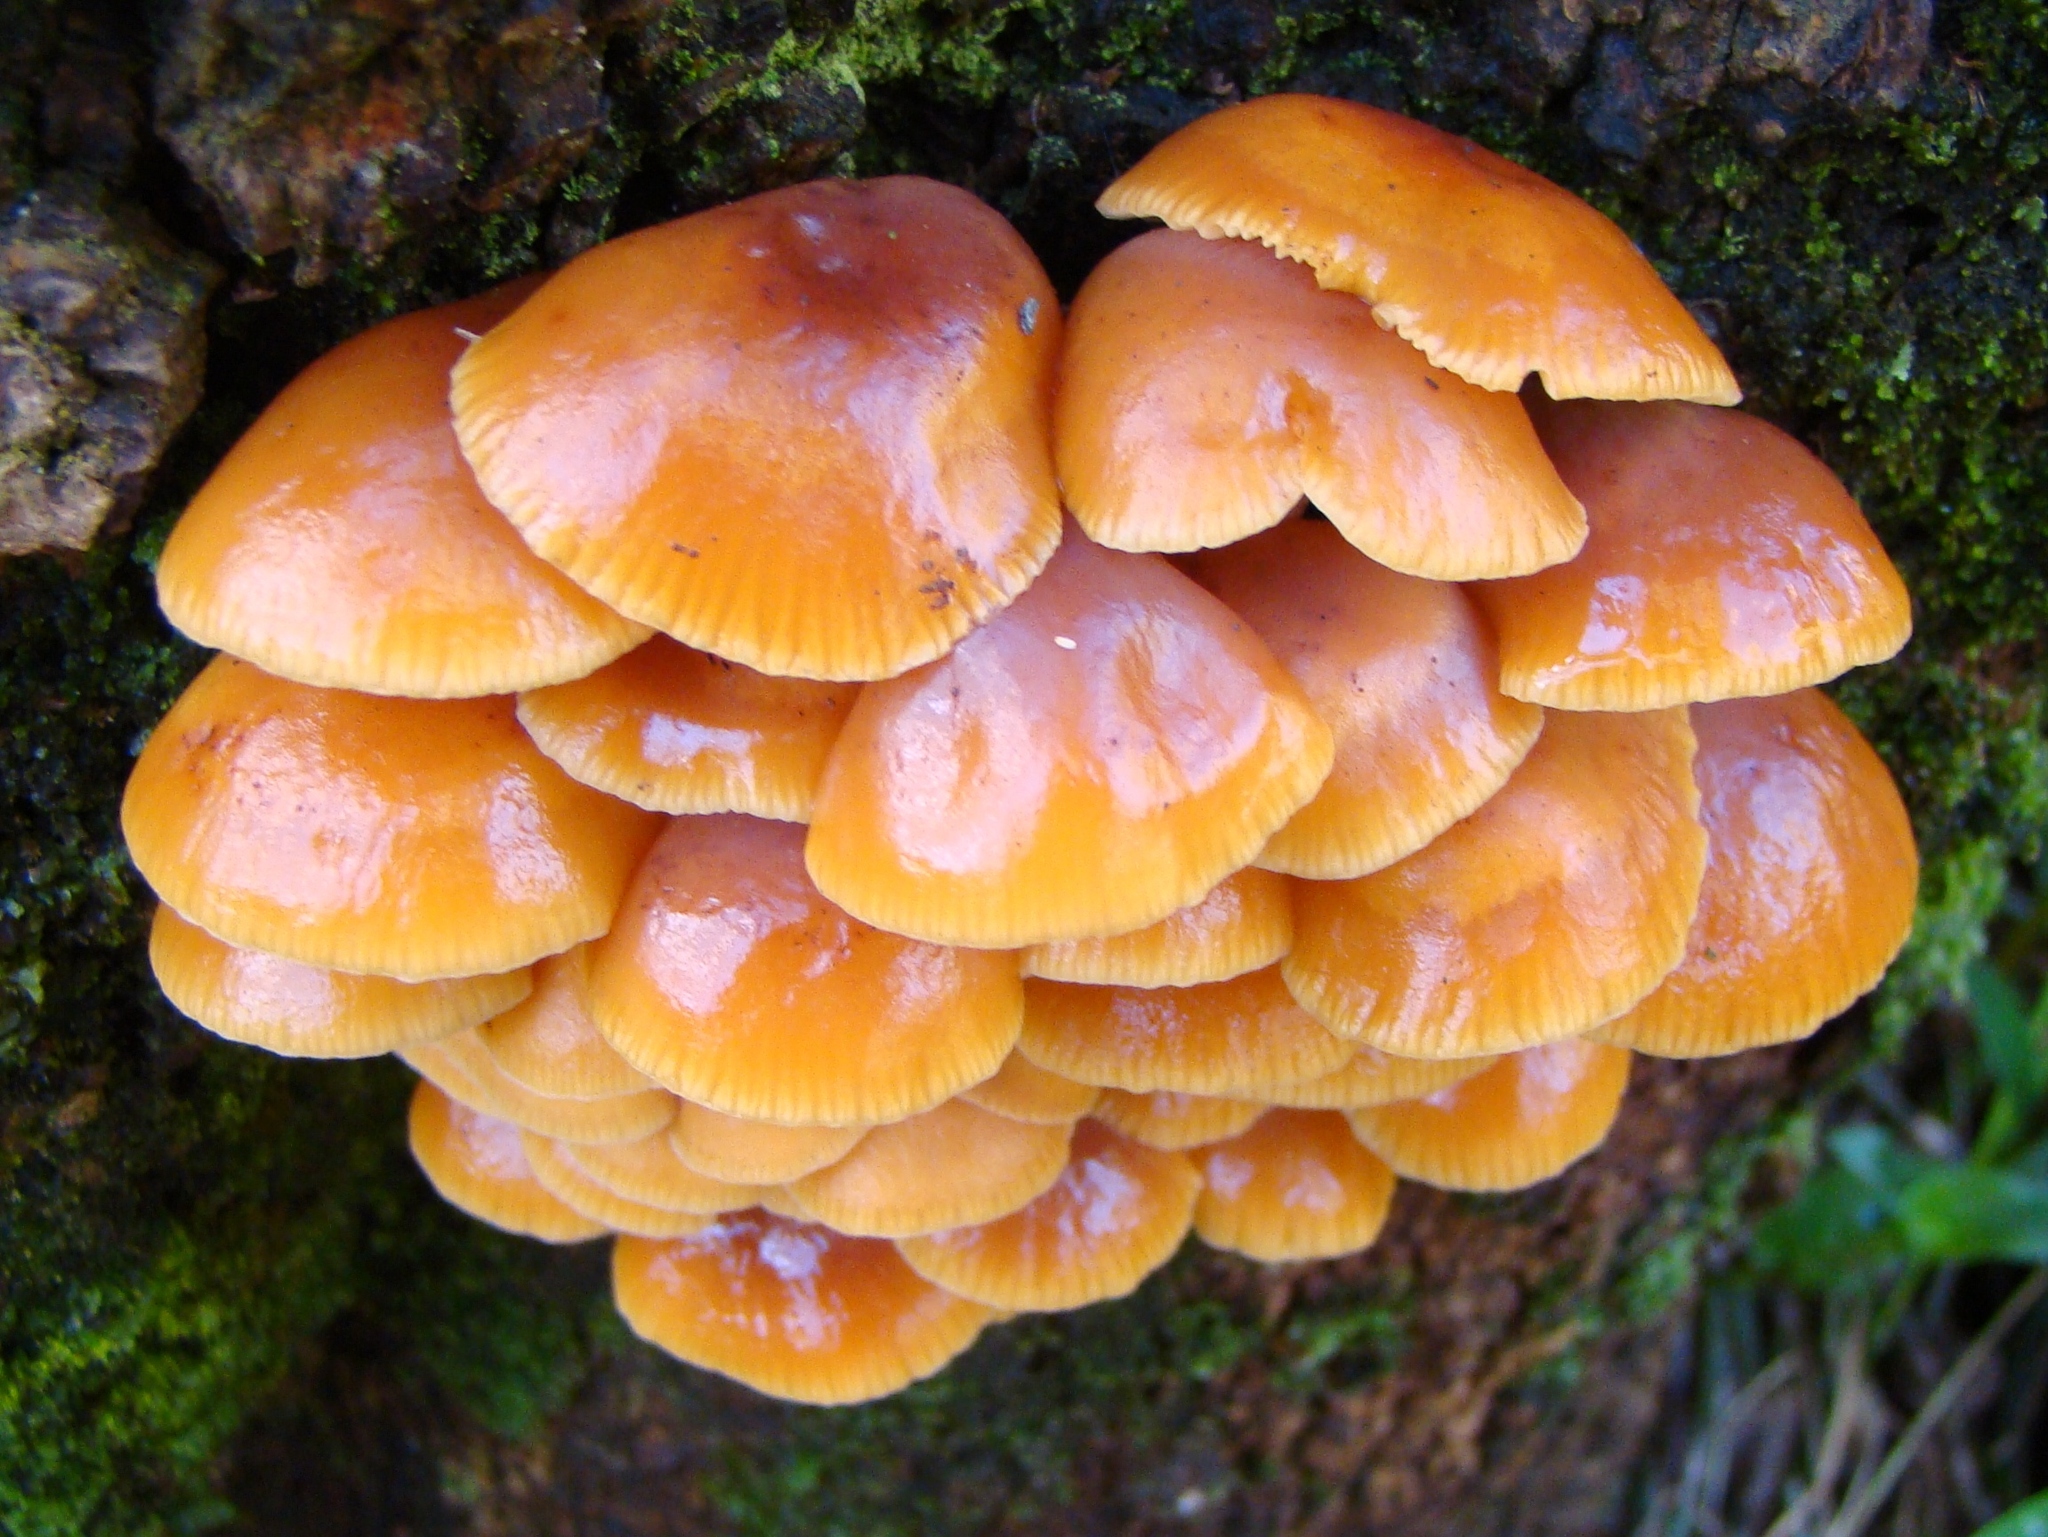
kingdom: Fungi
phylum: Basidiomycota
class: Agaricomycetes
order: Agaricales
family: Physalacriaceae
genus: Flammulina
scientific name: Flammulina velutipes
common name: Velvet shank
